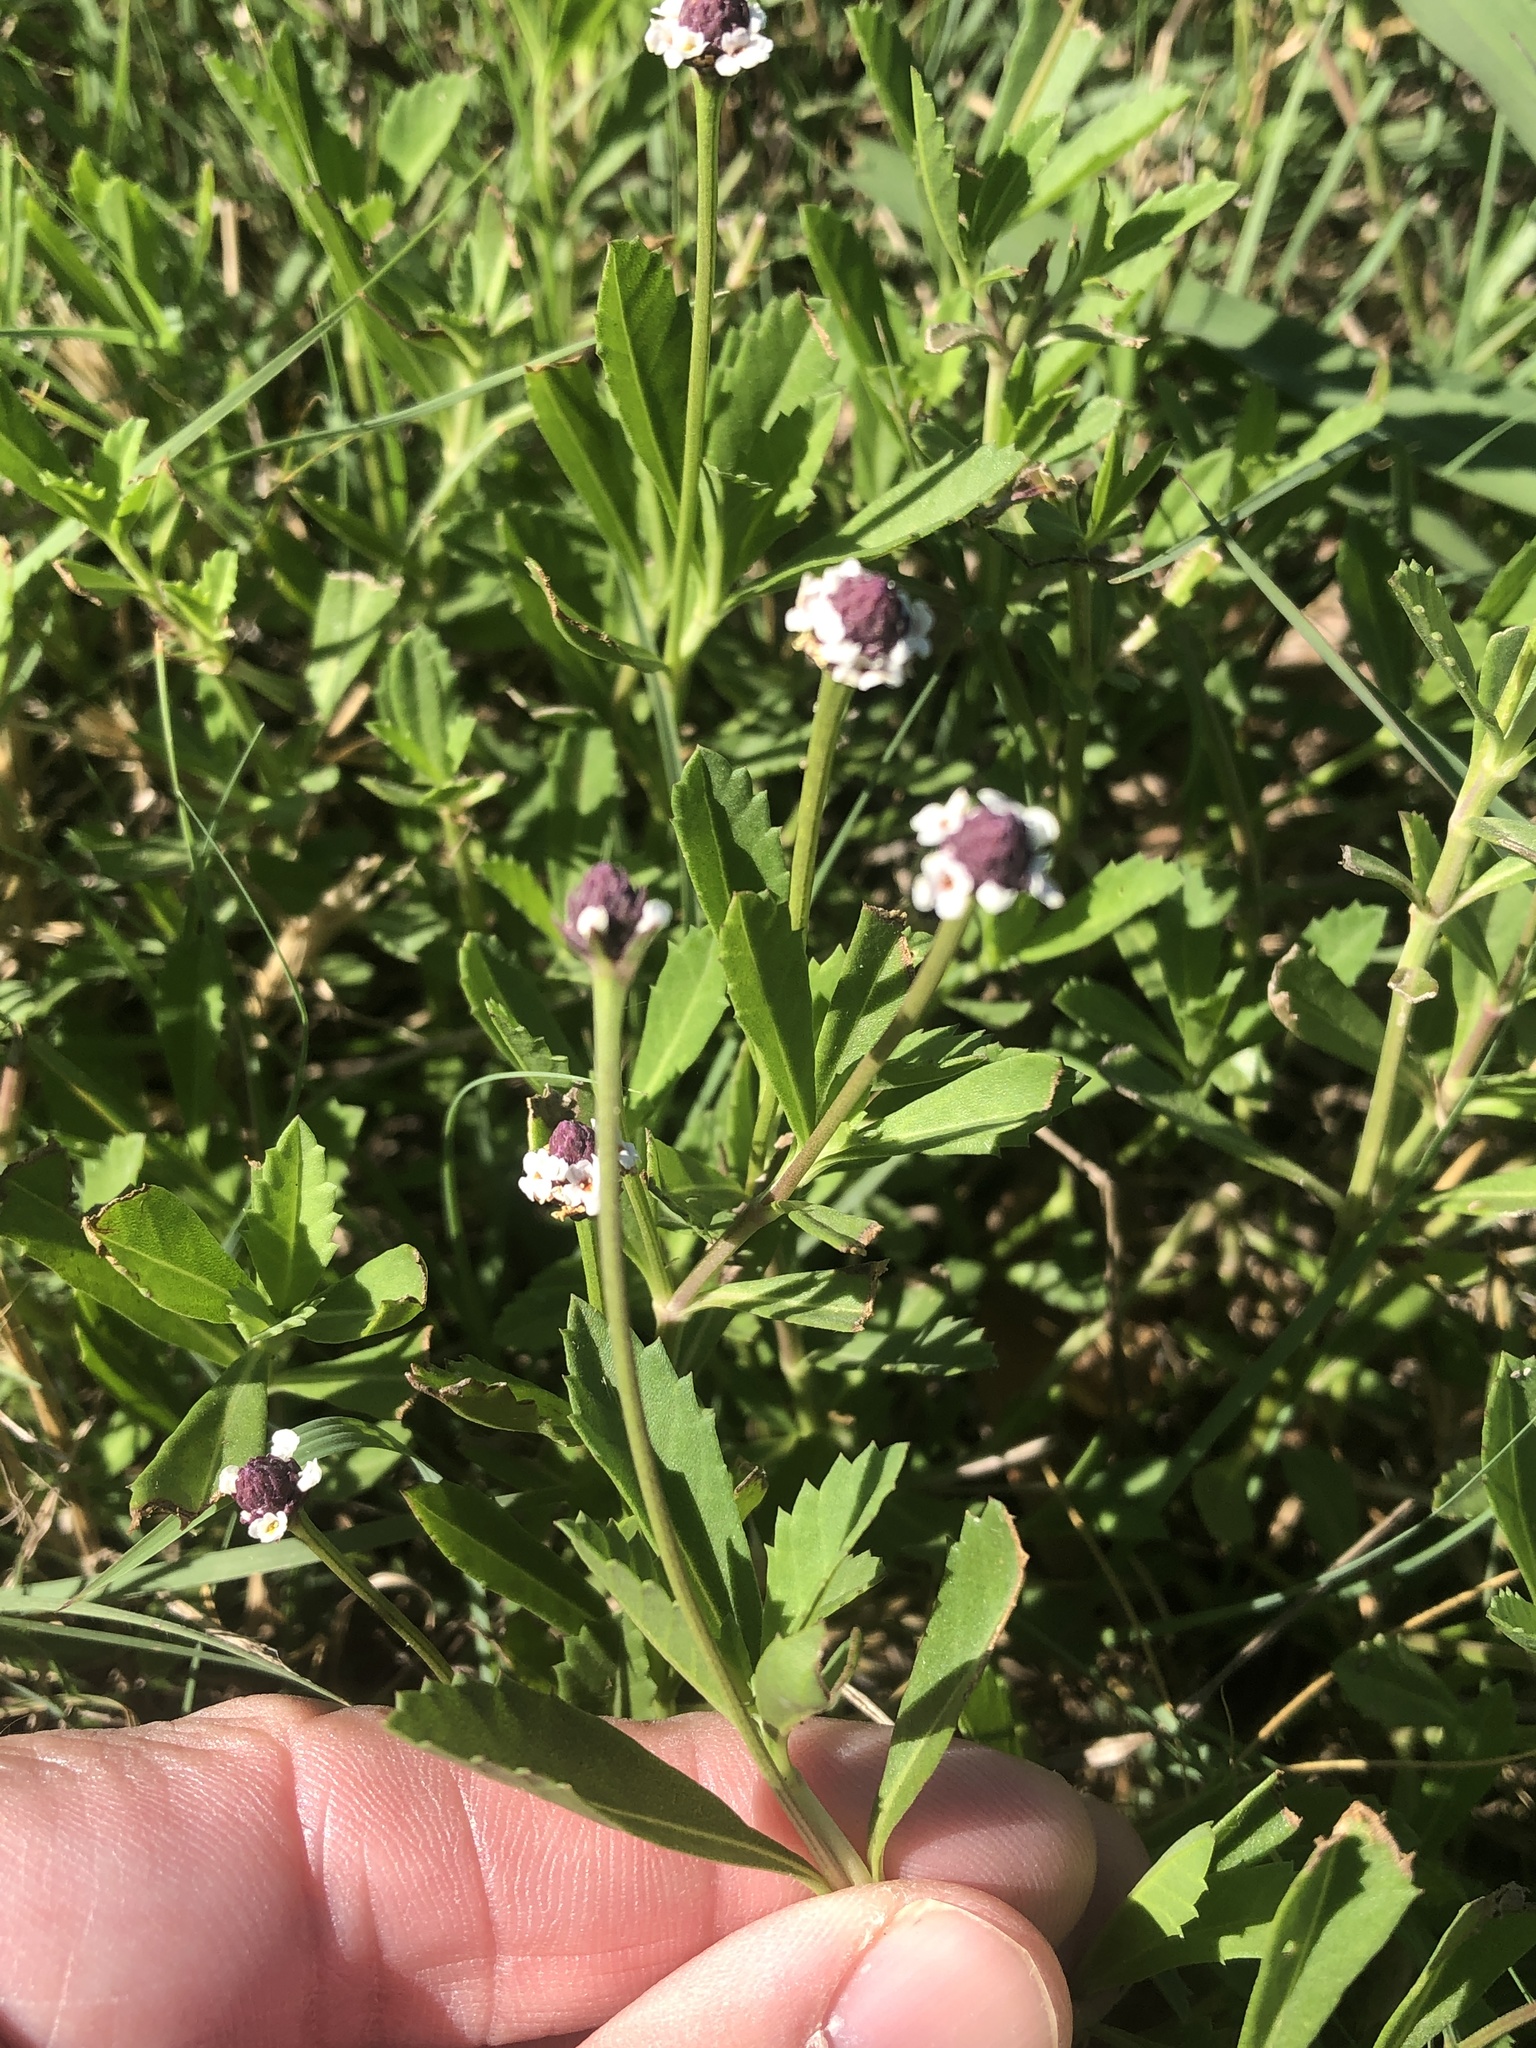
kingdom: Plantae
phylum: Tracheophyta
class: Magnoliopsida
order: Lamiales
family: Verbenaceae
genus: Phyla
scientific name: Phyla nodiflora
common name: Frogfruit
